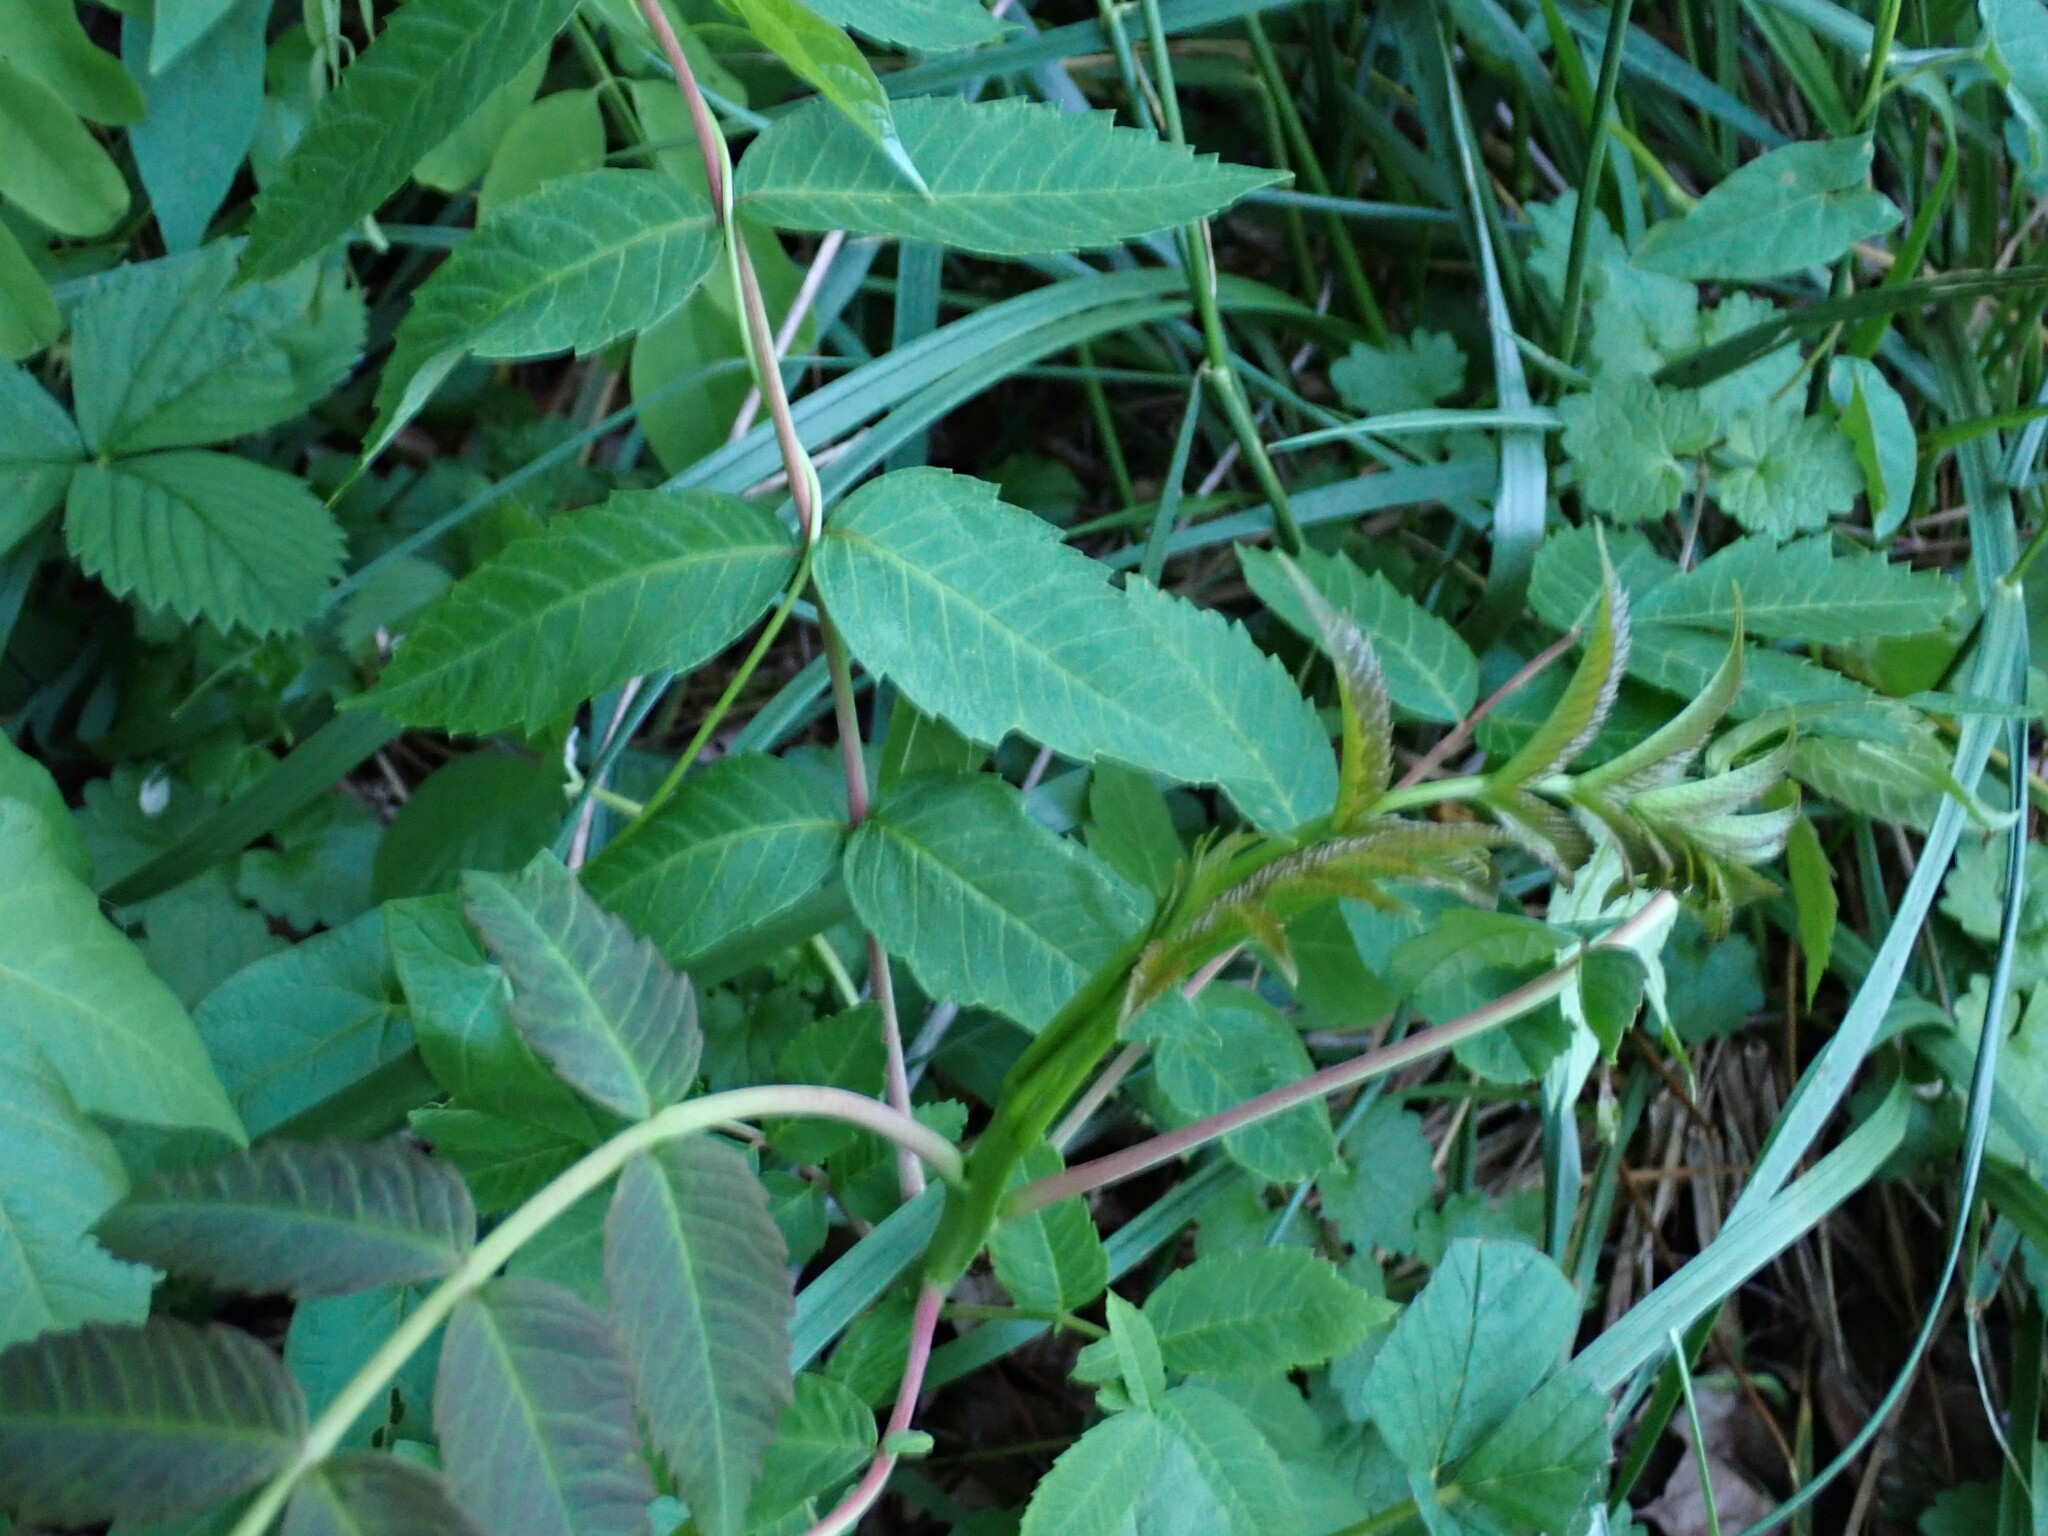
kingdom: Plantae
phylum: Tracheophyta
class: Magnoliopsida
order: Sapindales
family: Anacardiaceae
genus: Rhus
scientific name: Rhus glabra
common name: Scarlet sumac
